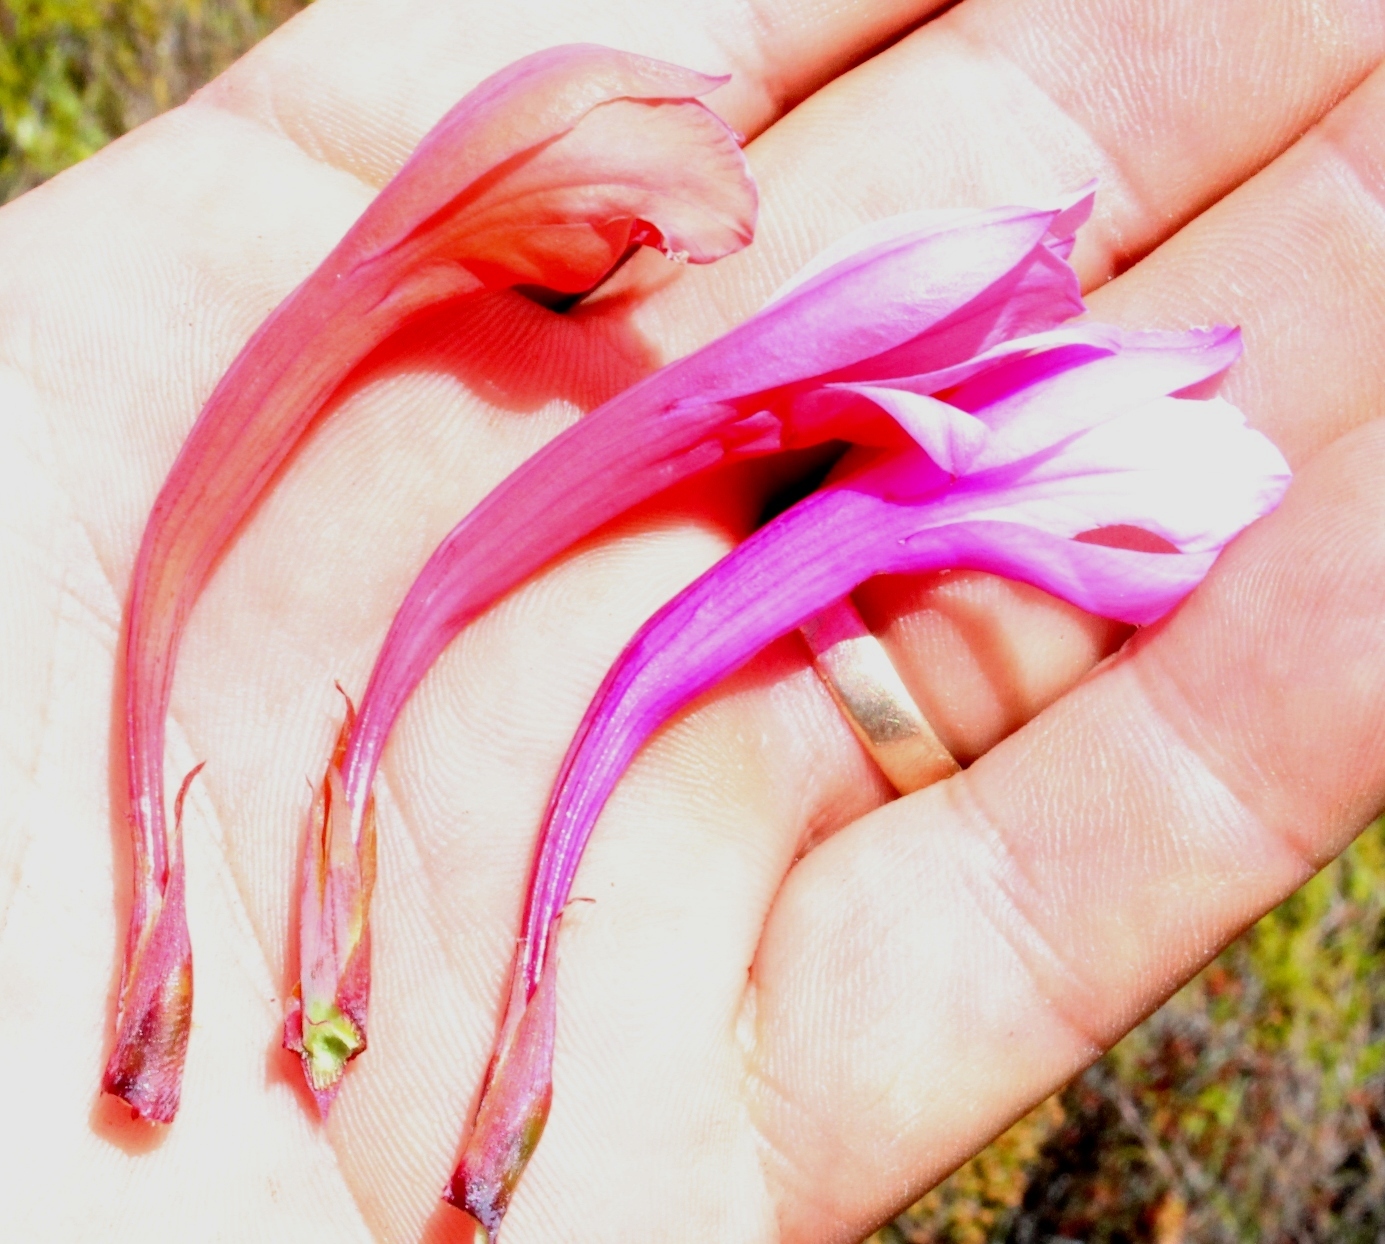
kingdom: Plantae
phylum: Tracheophyta
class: Liliopsida
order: Asparagales
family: Iridaceae
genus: Watsonia
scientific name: Watsonia fourcadei
